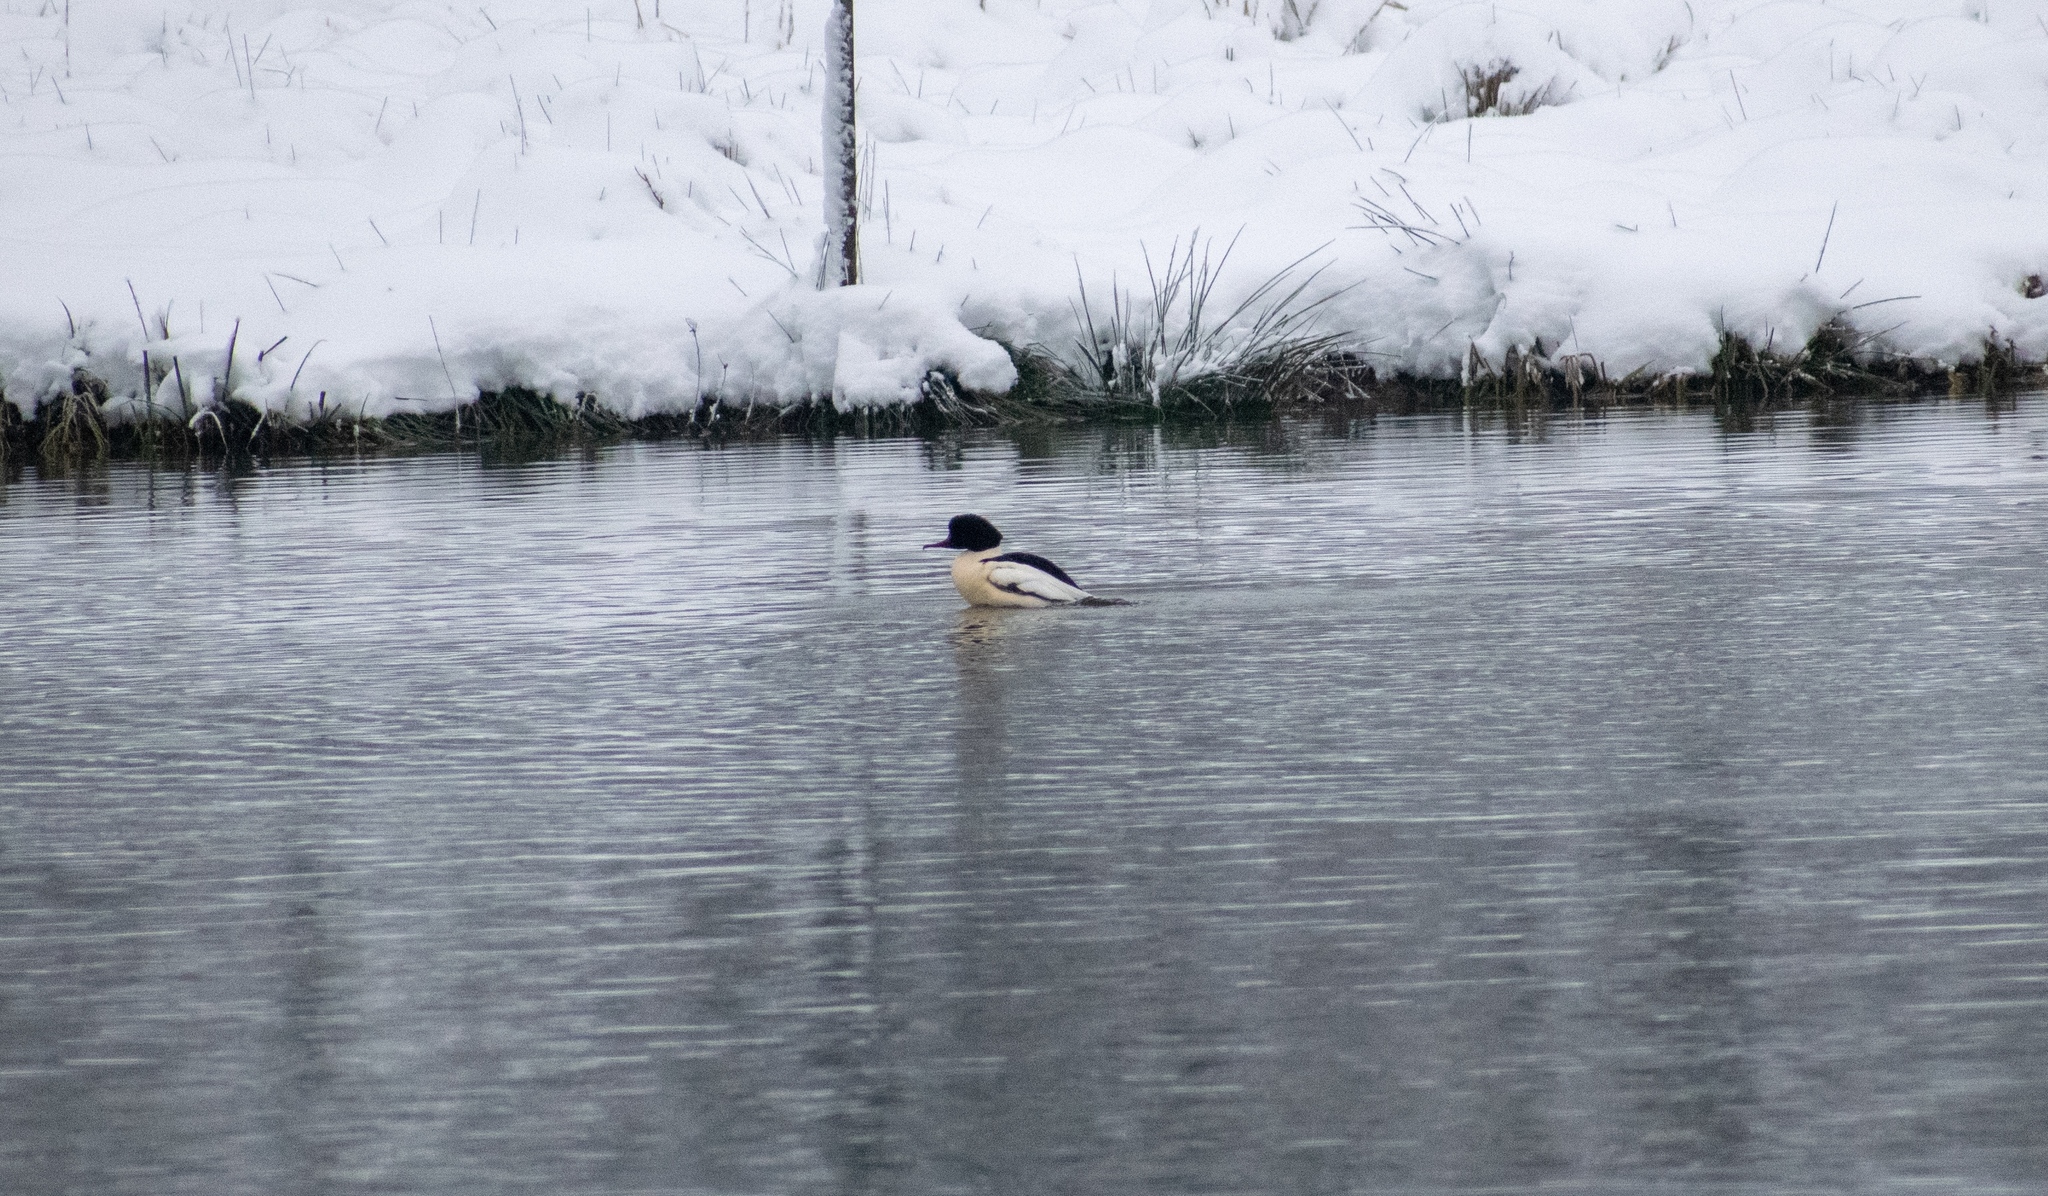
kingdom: Animalia
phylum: Chordata
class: Aves
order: Anseriformes
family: Anatidae
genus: Mergus
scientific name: Mergus merganser
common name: Common merganser
